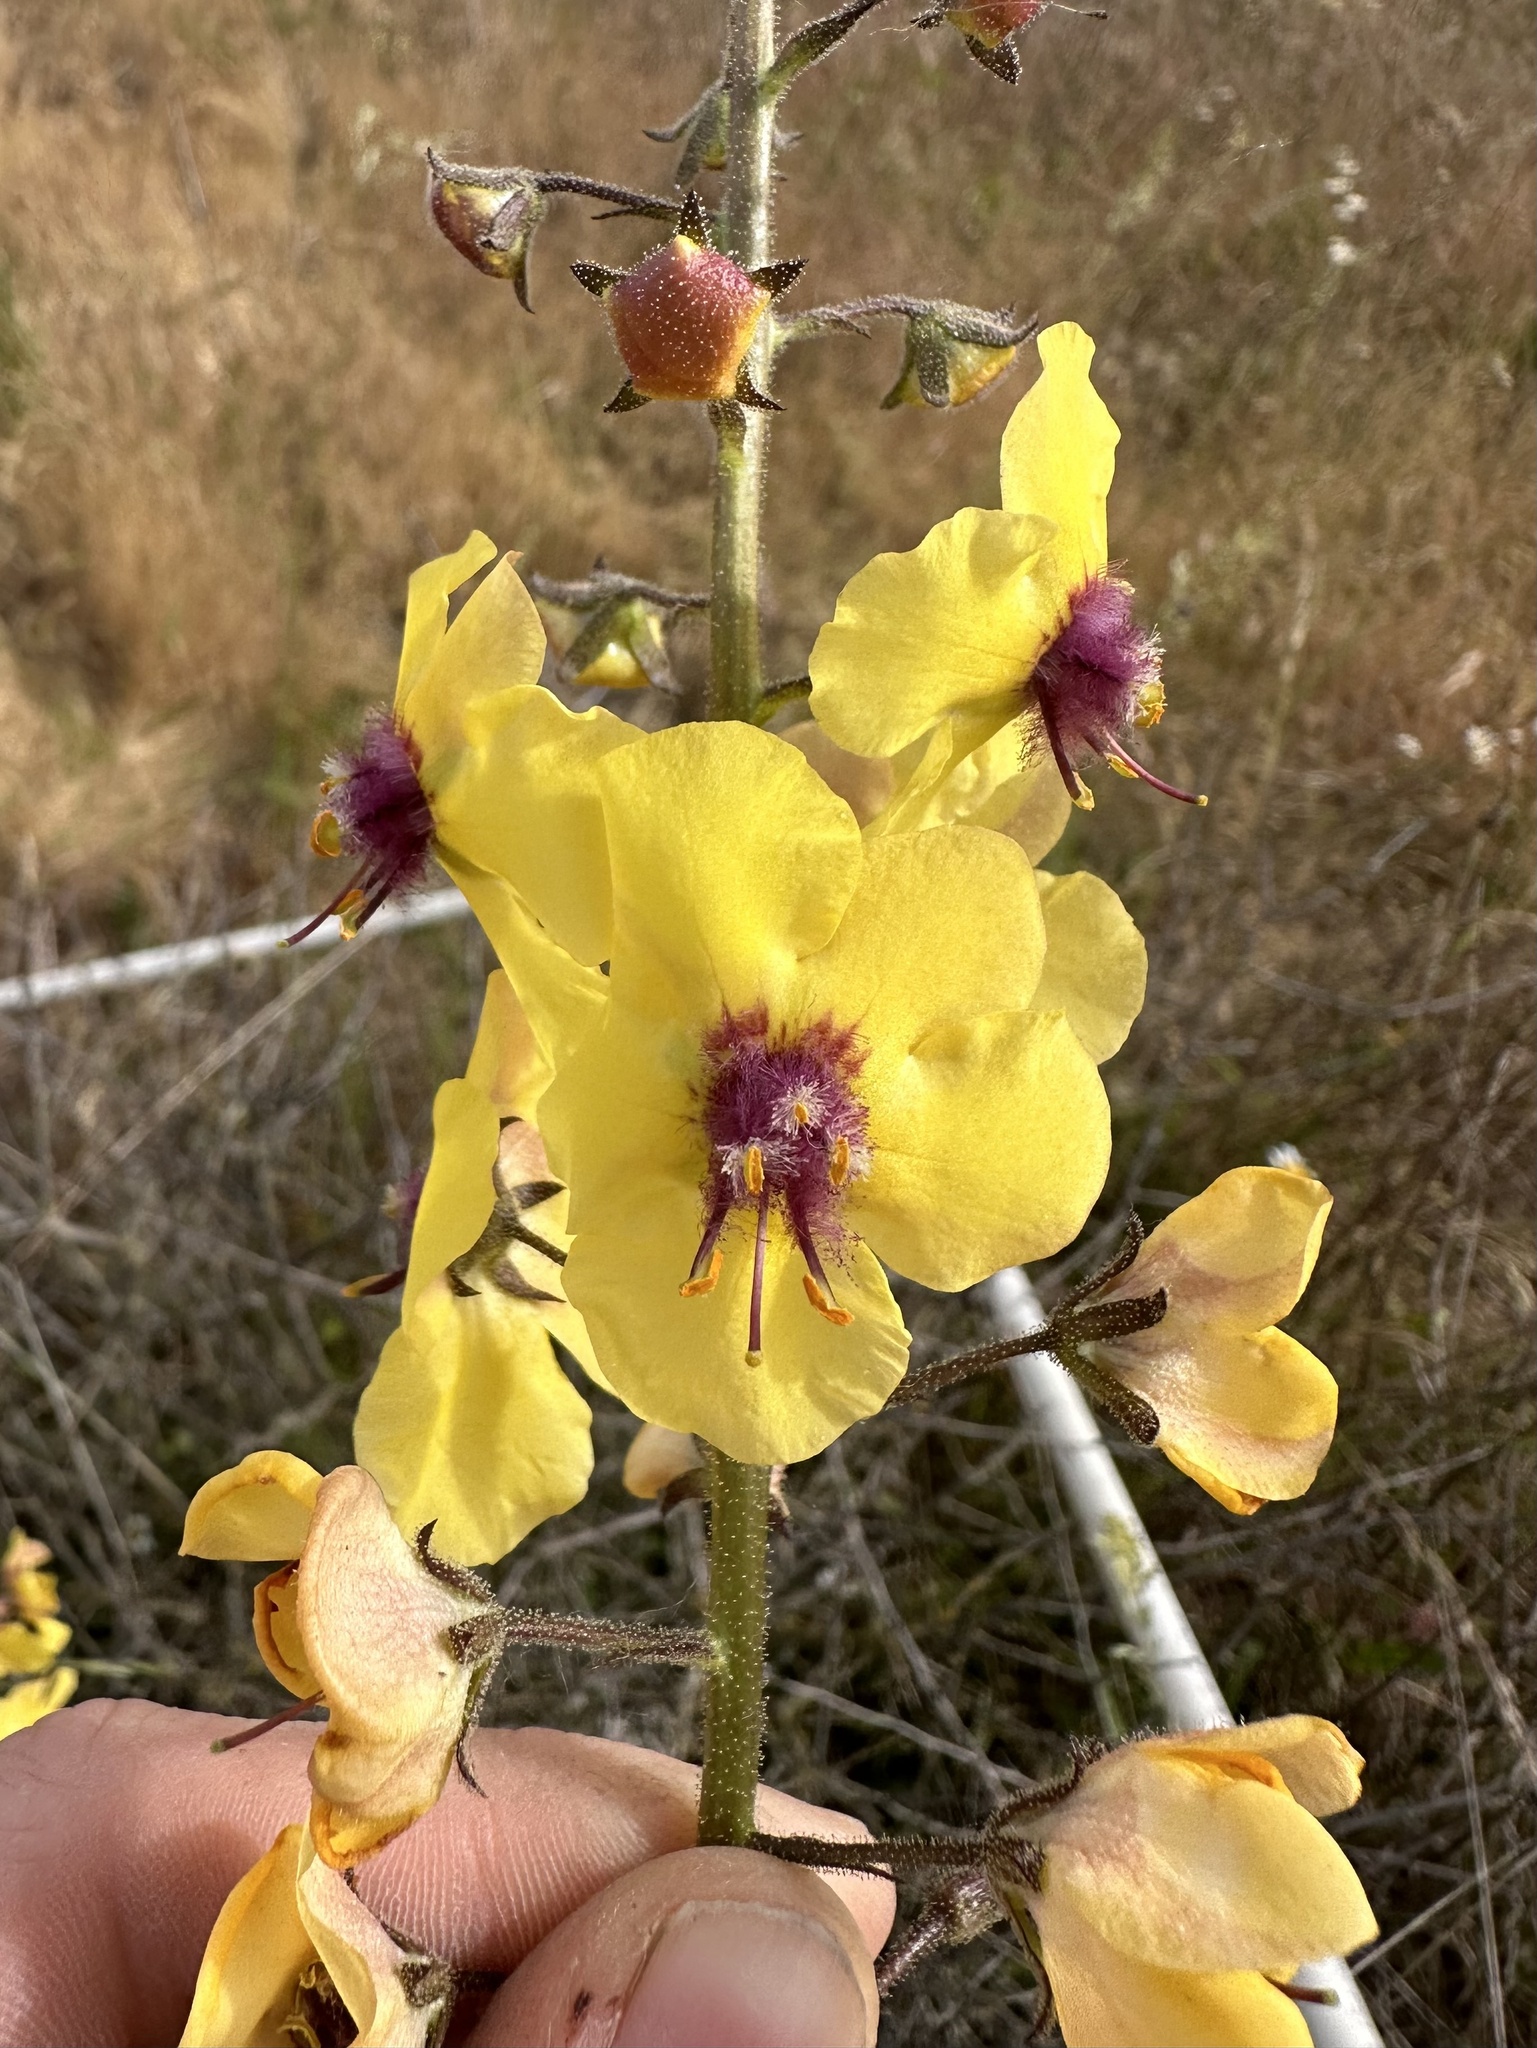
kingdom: Plantae
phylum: Tracheophyta
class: Magnoliopsida
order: Lamiales
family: Scrophulariaceae
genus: Verbascum
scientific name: Verbascum blattaria
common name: Moth mullein
